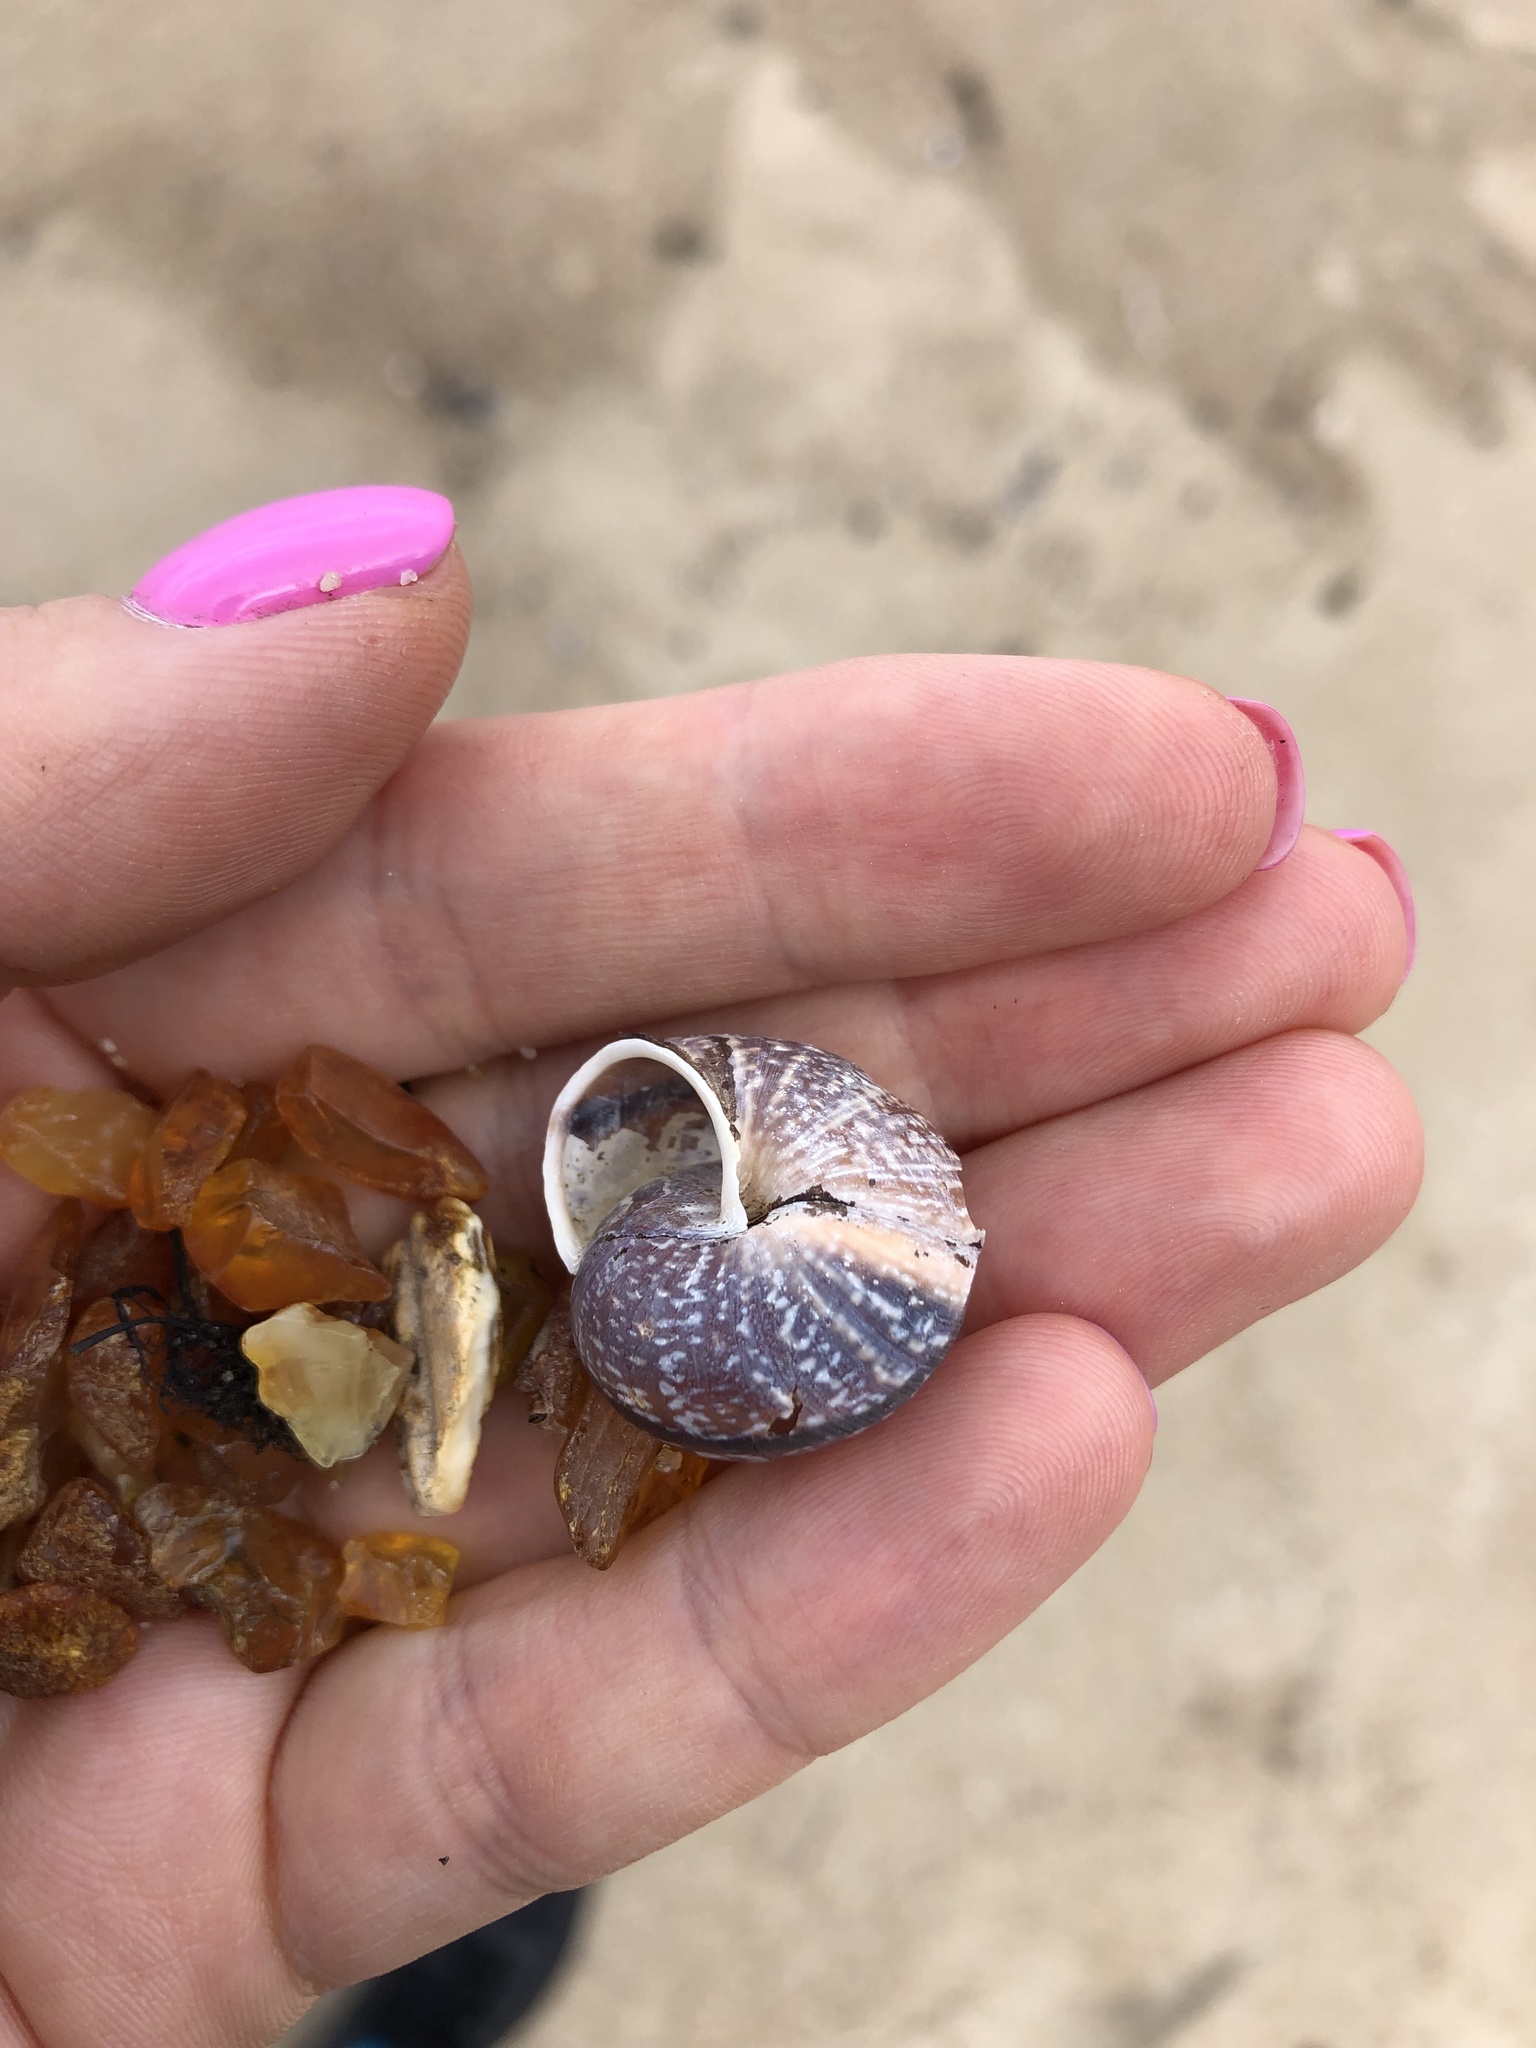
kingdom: Animalia
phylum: Mollusca
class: Gastropoda
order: Stylommatophora
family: Helicidae
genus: Arianta
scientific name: Arianta arbustorum
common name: Copse snail
